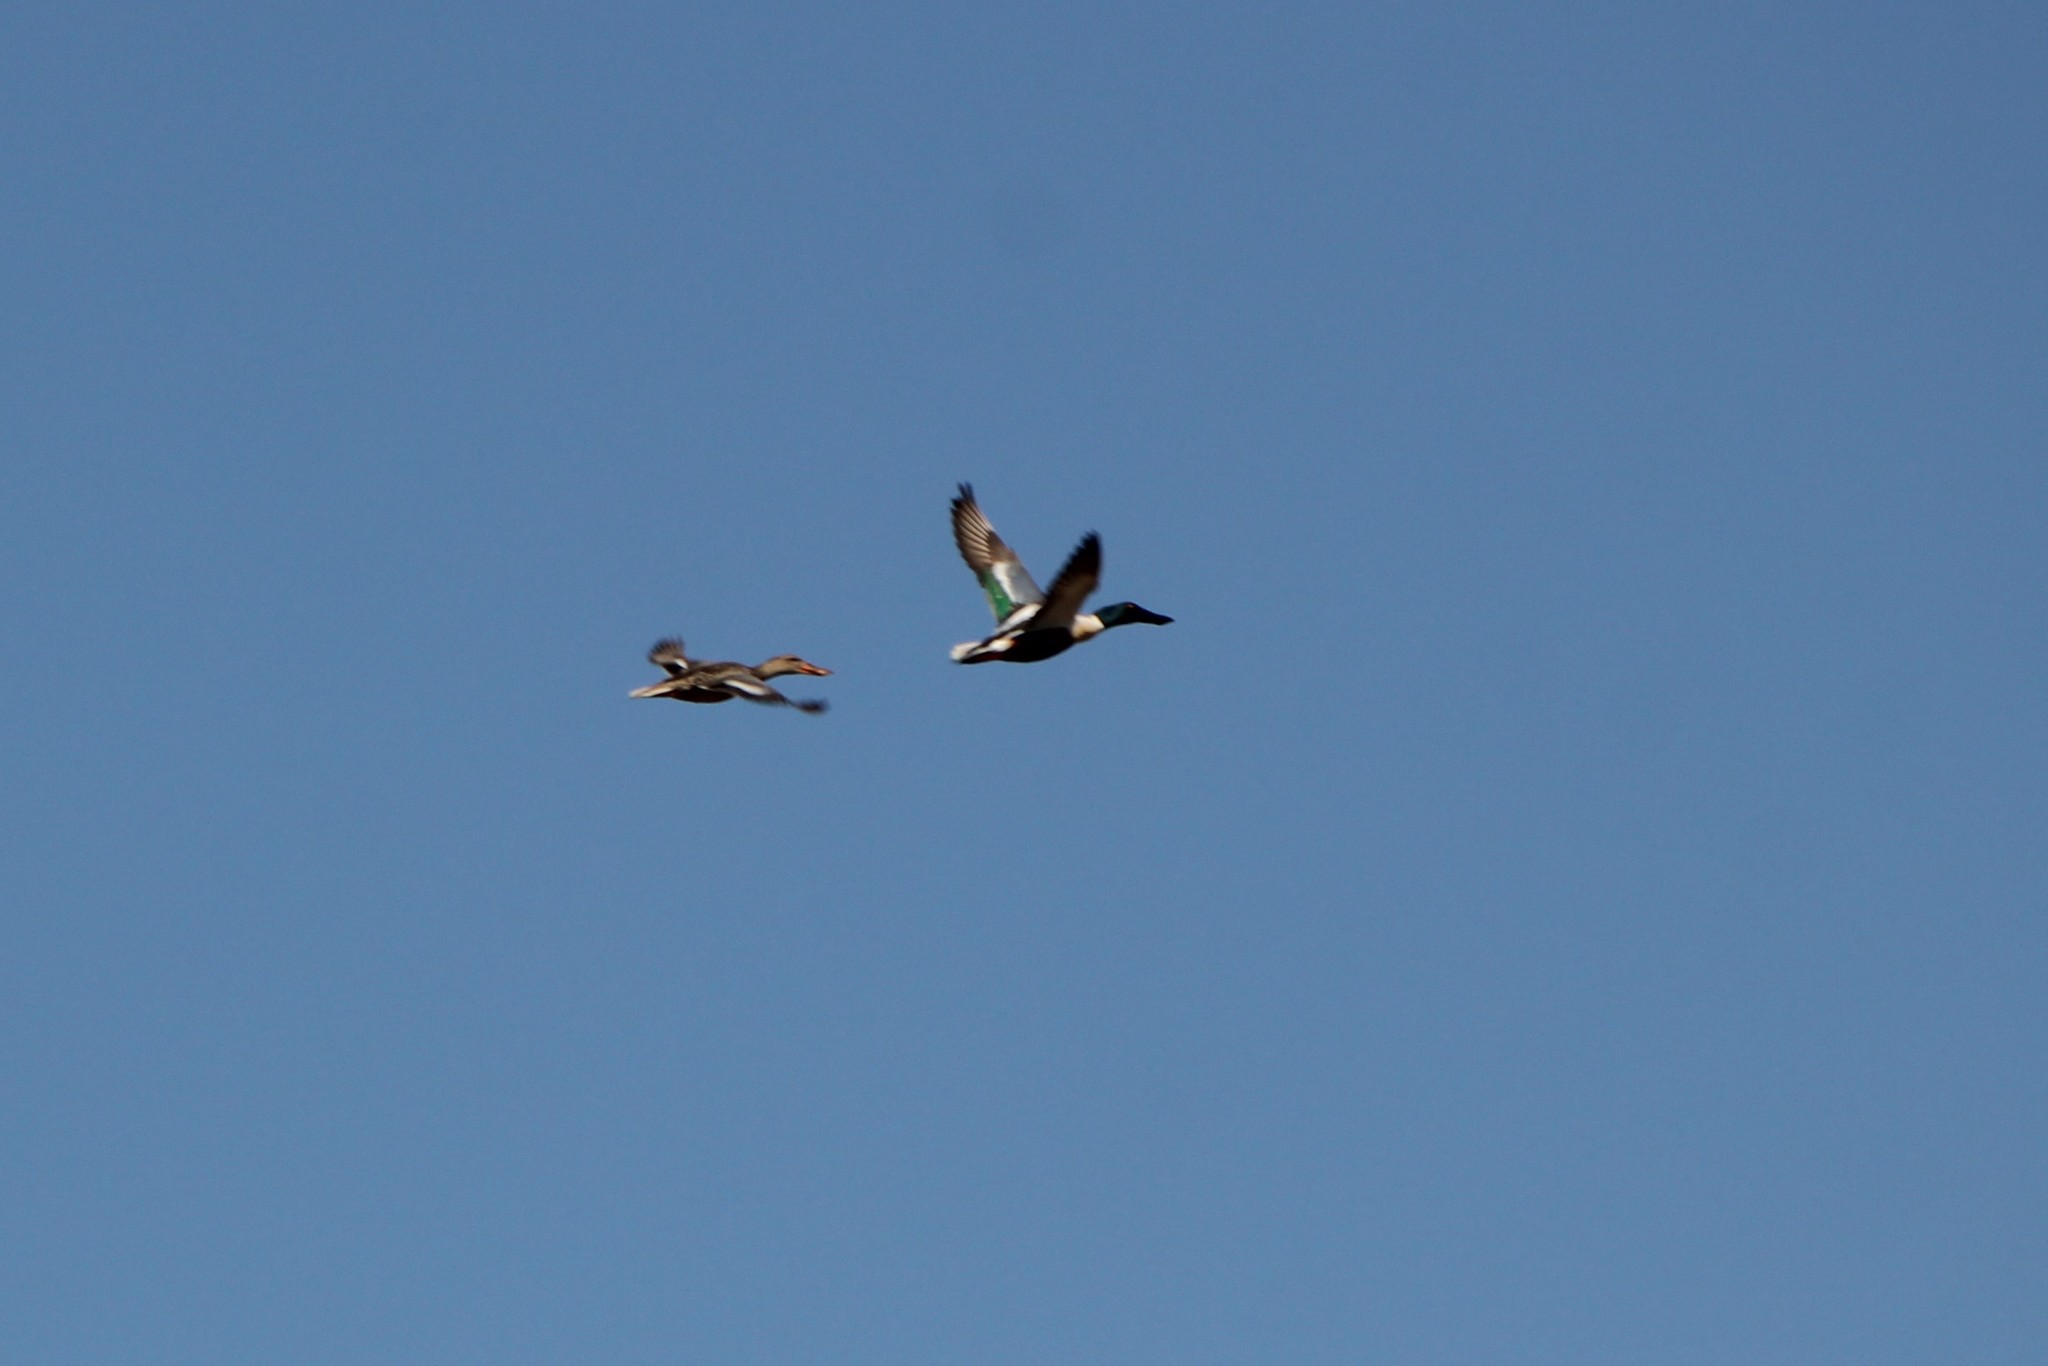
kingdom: Animalia
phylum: Chordata
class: Aves
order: Anseriformes
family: Anatidae
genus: Spatula
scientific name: Spatula clypeata
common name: Northern shoveler
